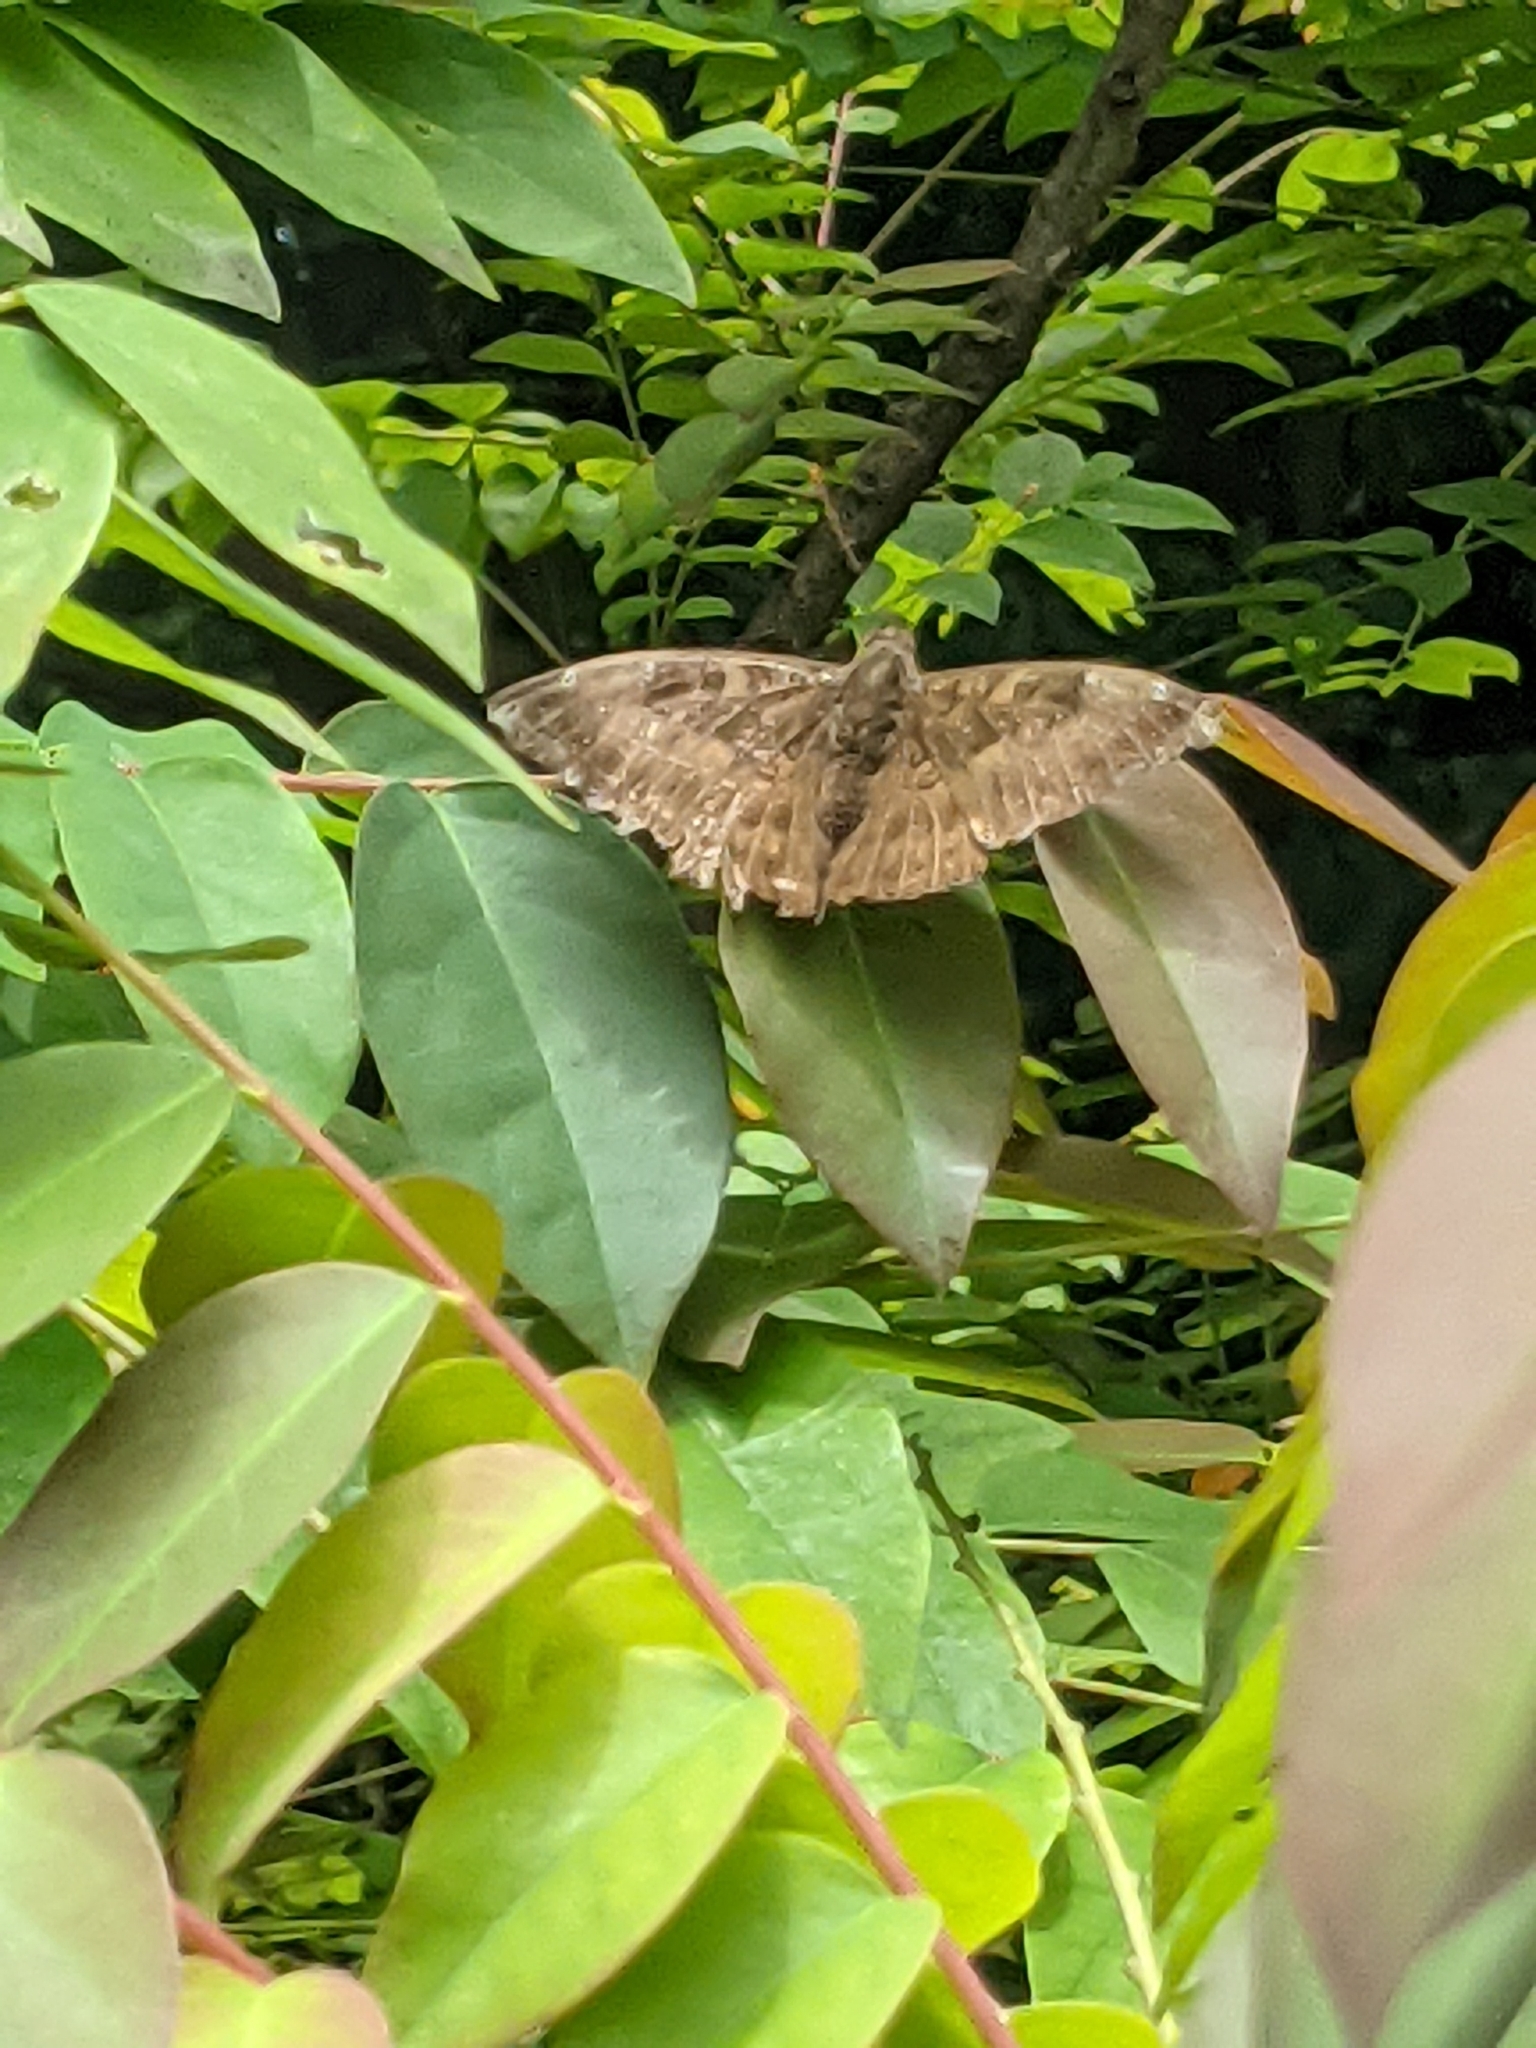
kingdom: Animalia
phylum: Arthropoda
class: Insecta
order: Lepidoptera
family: Nymphalidae
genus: Euthalia
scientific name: Euthalia aconthea
